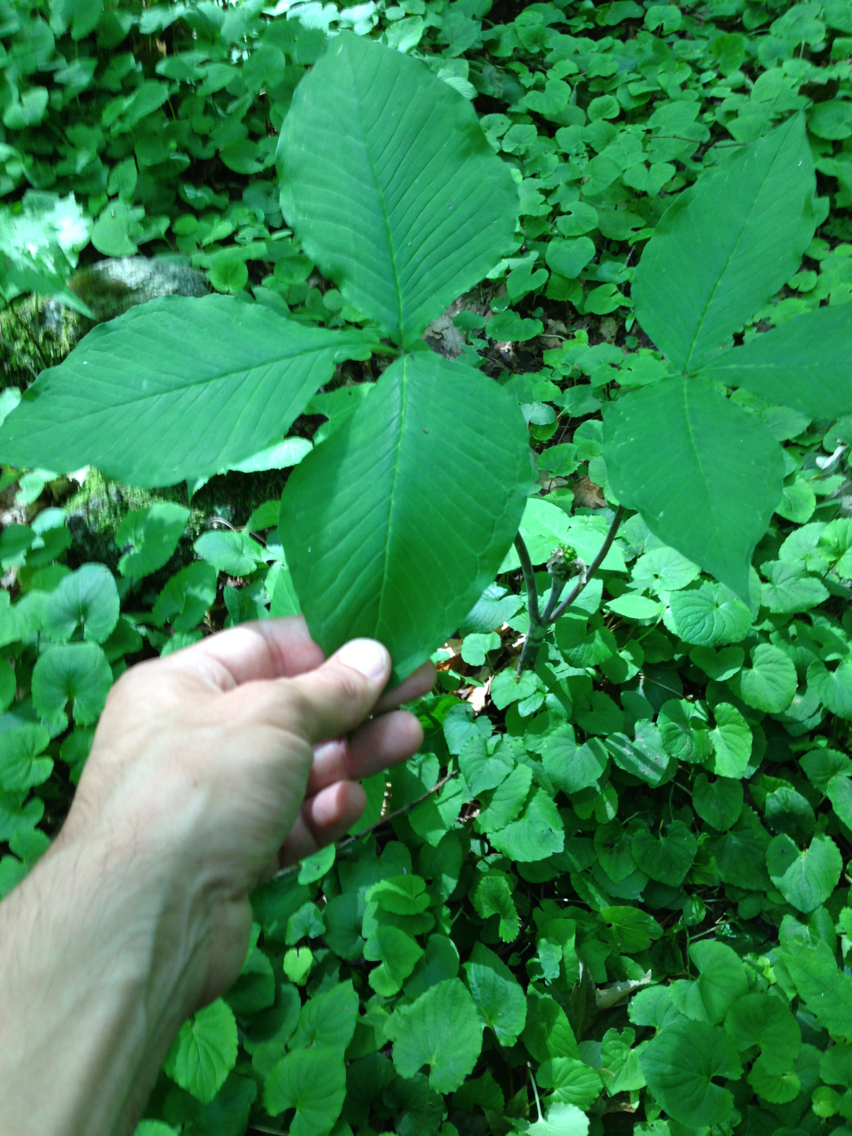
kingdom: Plantae
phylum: Tracheophyta
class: Liliopsida
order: Alismatales
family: Araceae
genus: Arisaema
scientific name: Arisaema triphyllum
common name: Jack-in-the-pulpit
